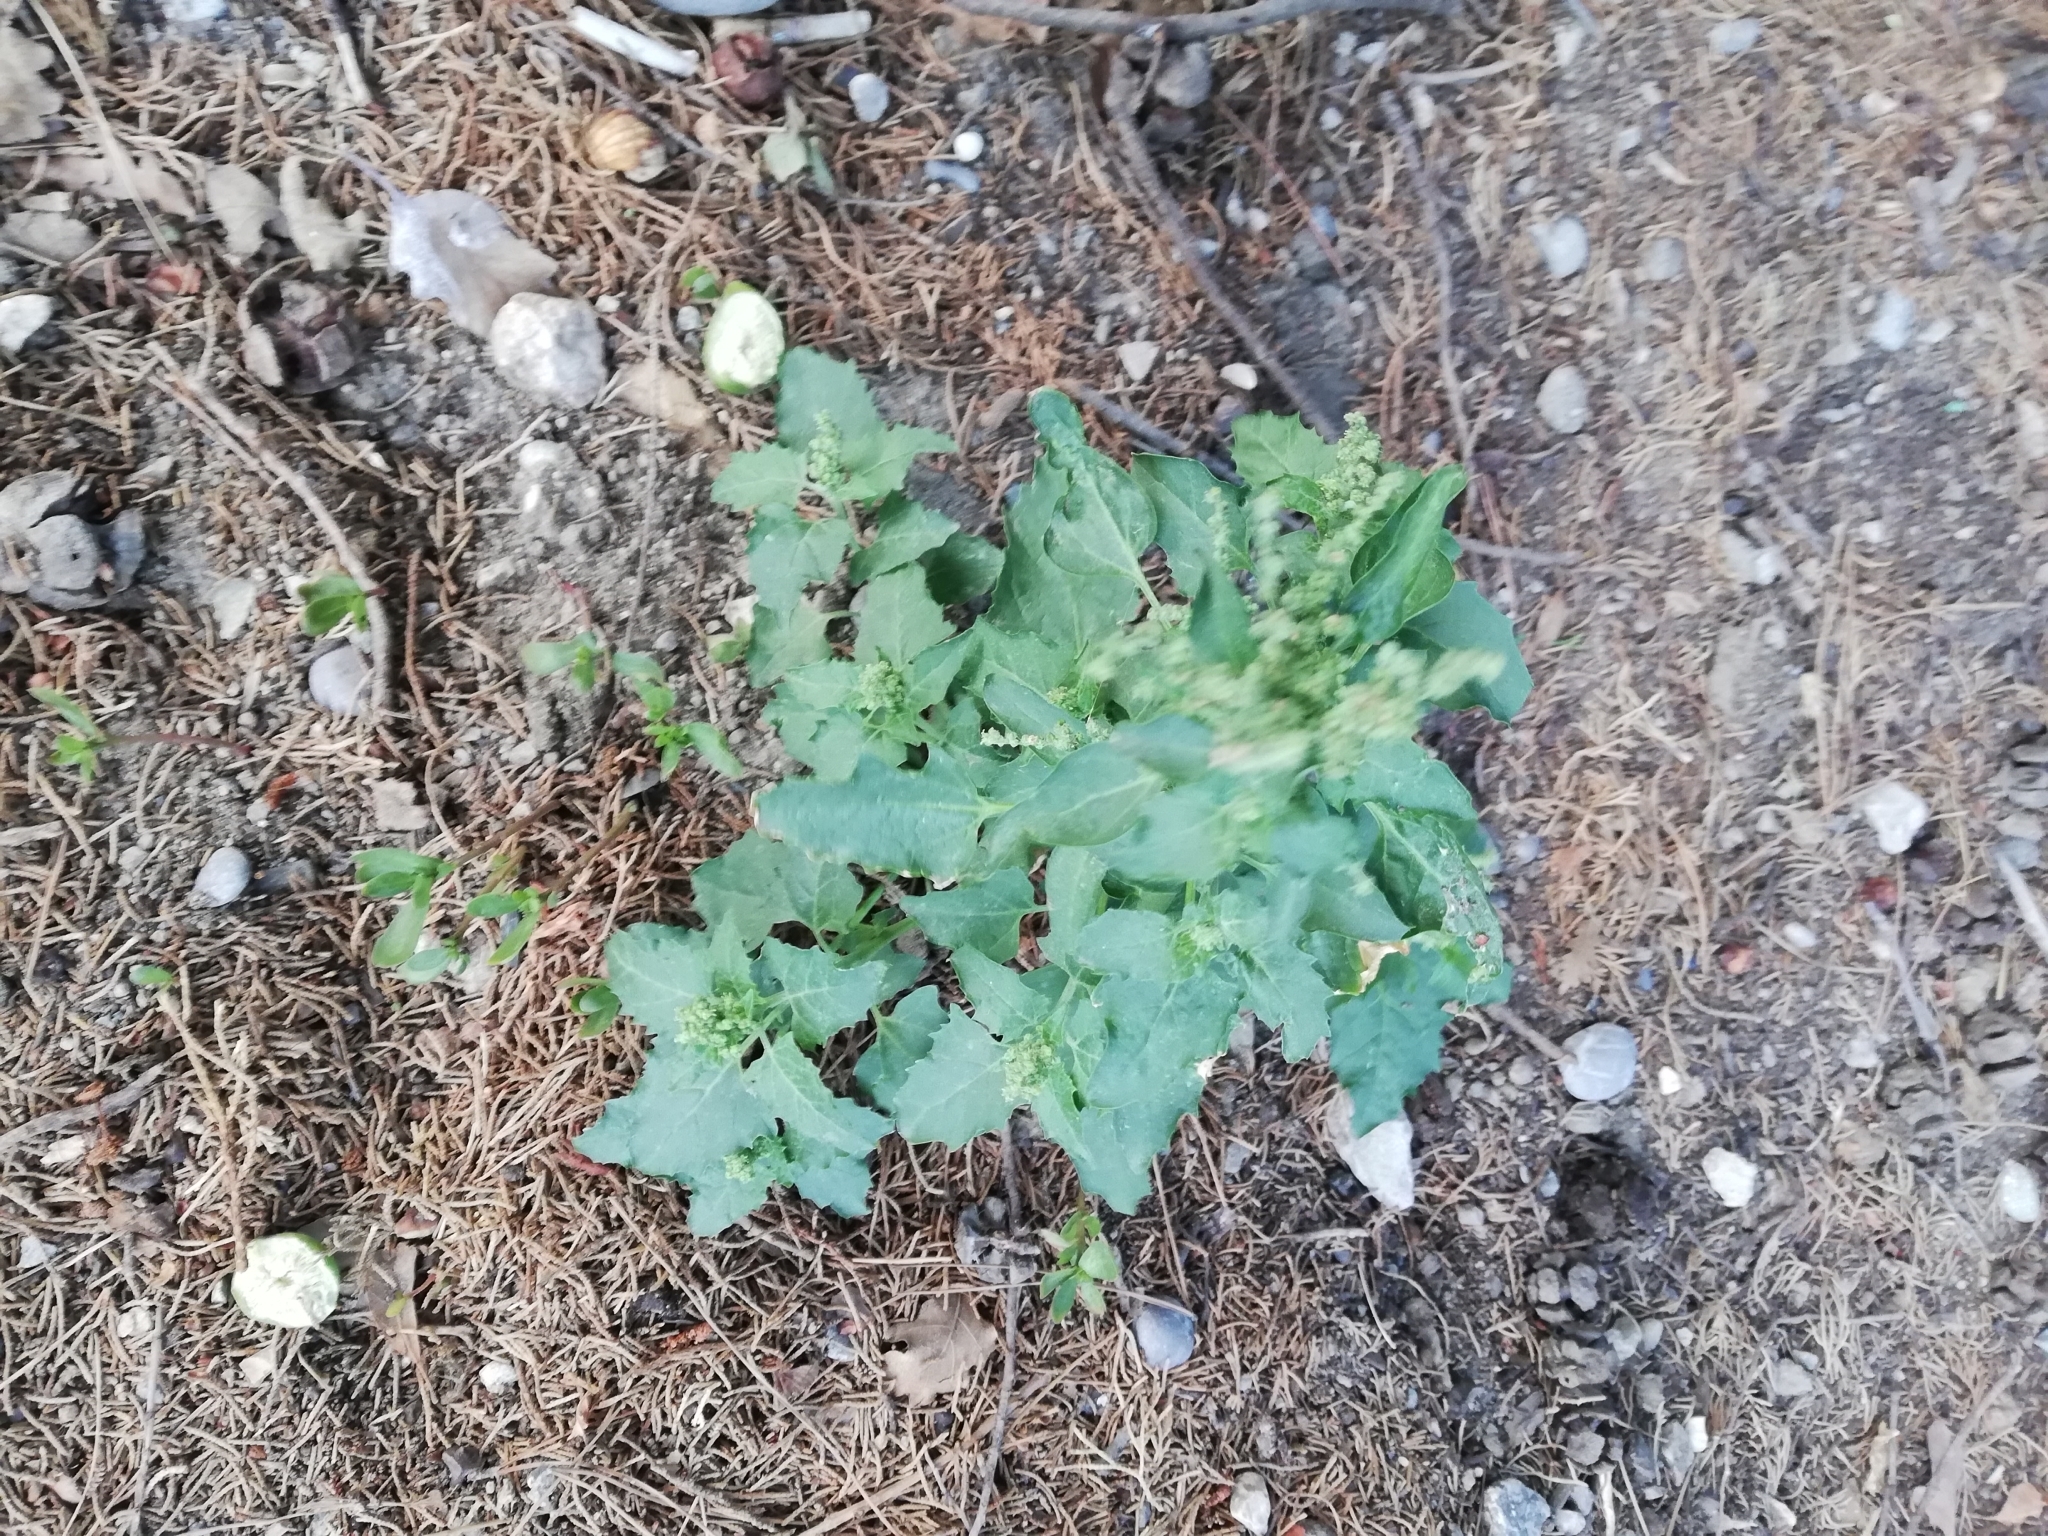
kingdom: Plantae
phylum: Tracheophyta
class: Magnoliopsida
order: Malpighiales
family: Euphorbiaceae
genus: Mercurialis
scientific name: Mercurialis annua
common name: Annual mercury
